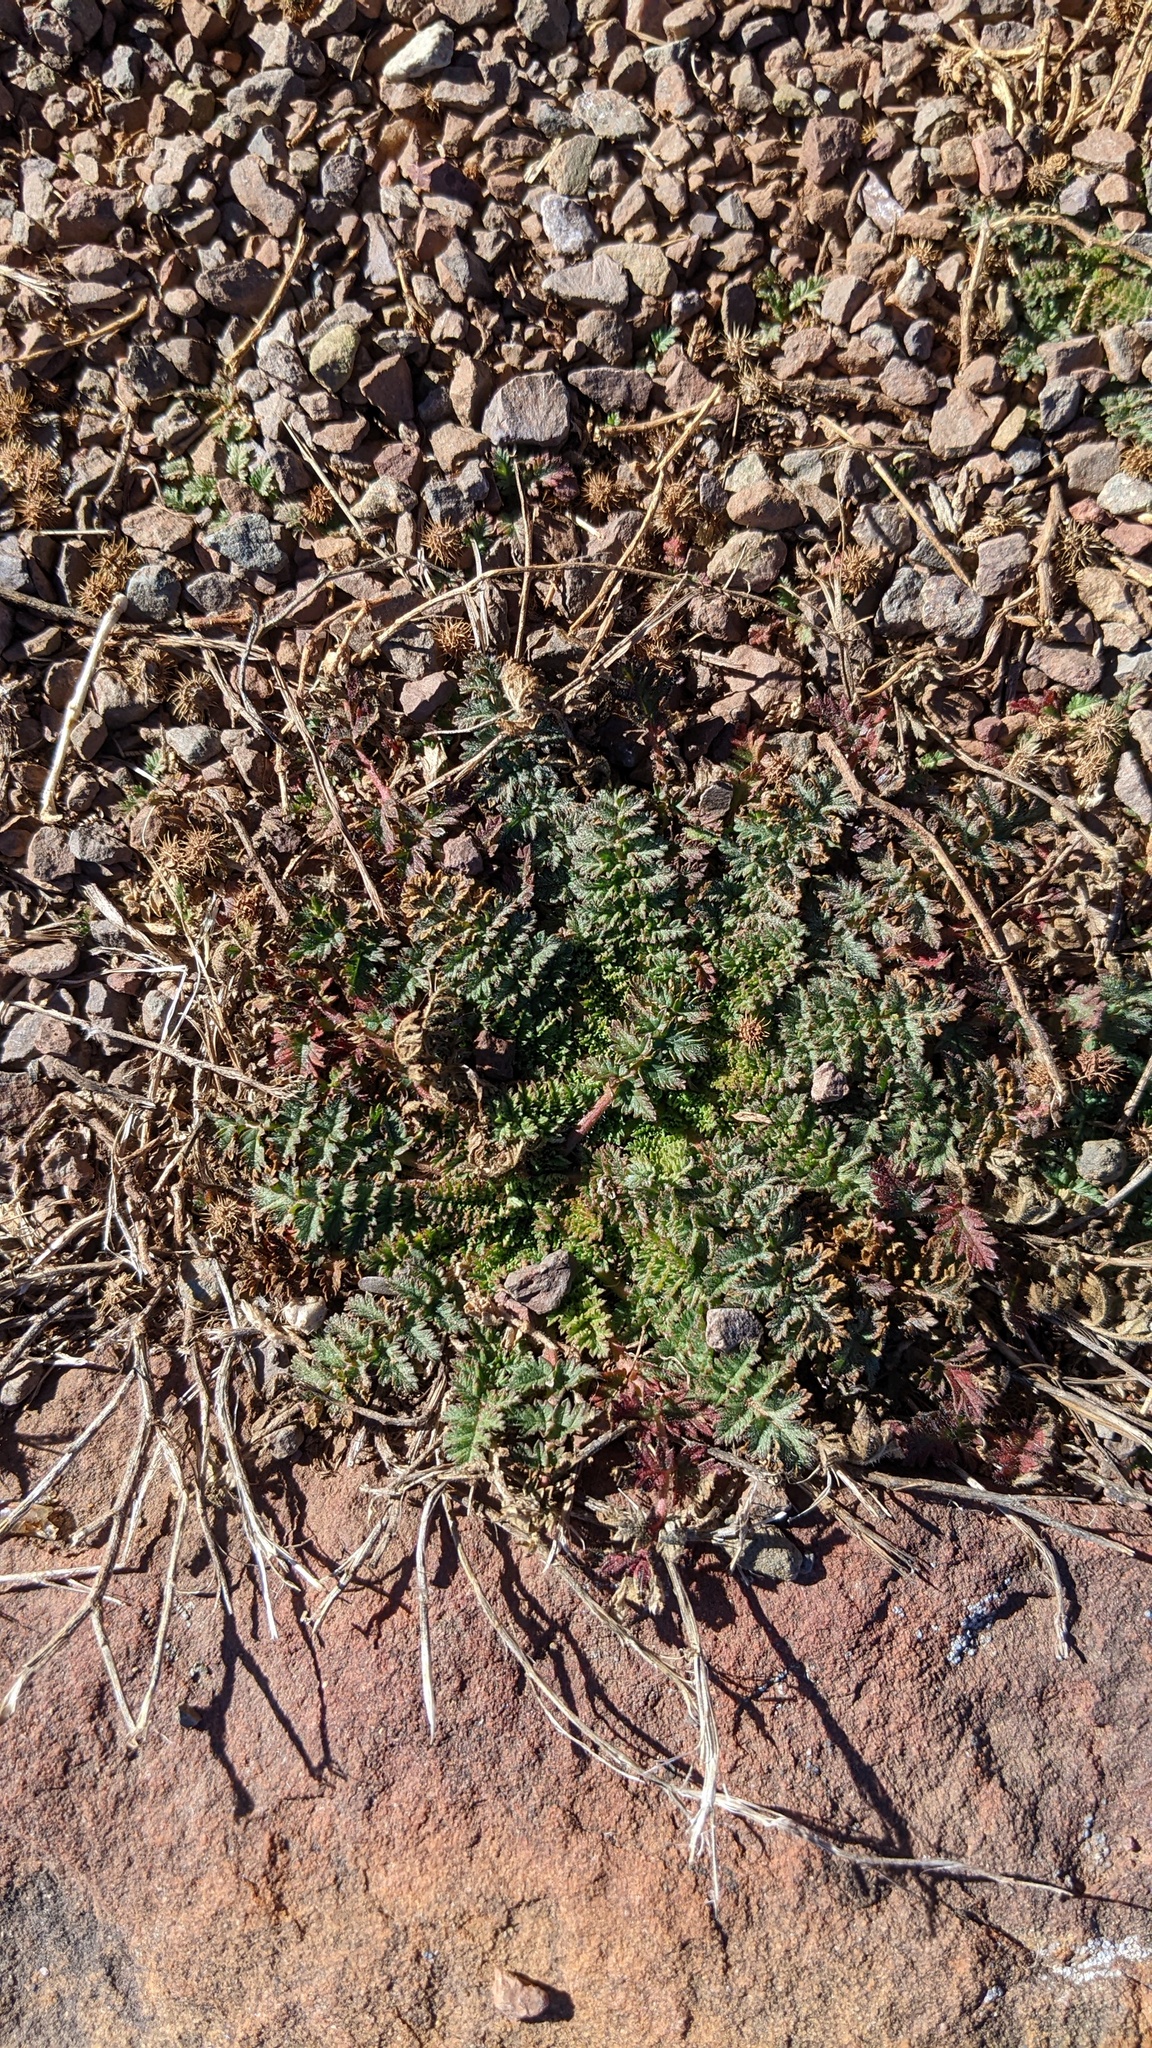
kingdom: Plantae
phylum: Tracheophyta
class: Magnoliopsida
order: Geraniales
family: Geraniaceae
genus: Erodium
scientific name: Erodium cicutarium
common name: Common stork's-bill
